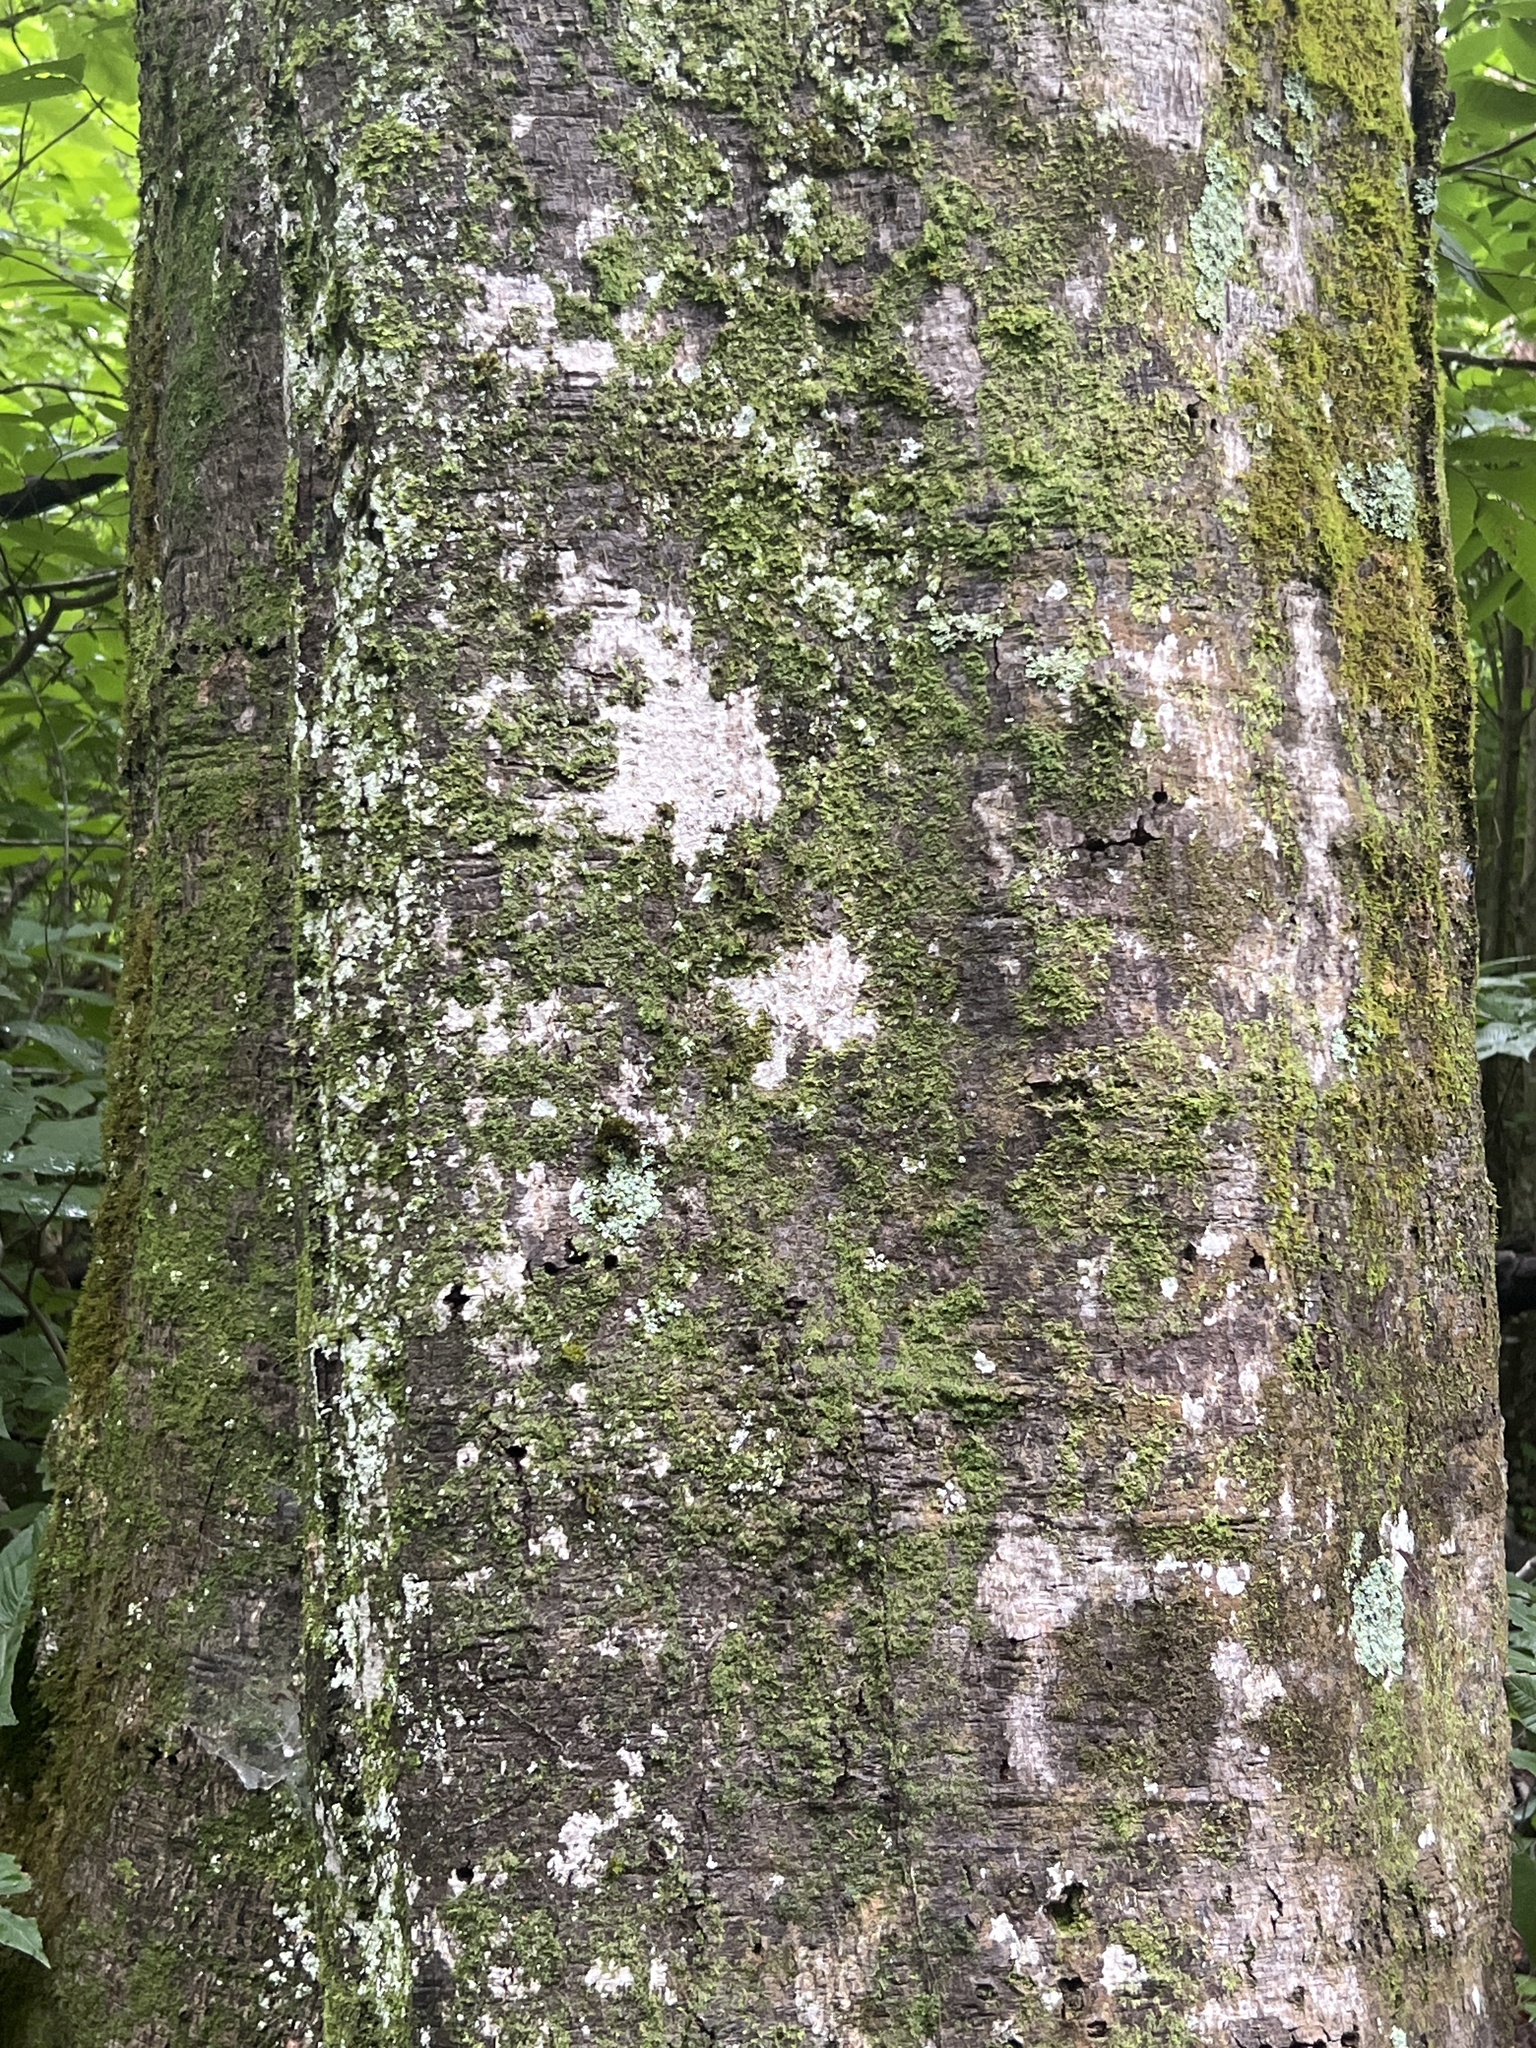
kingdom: Plantae
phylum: Tracheophyta
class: Magnoliopsida
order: Fagales
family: Fagaceae
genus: Fagus
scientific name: Fagus grandifolia
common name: American beech
